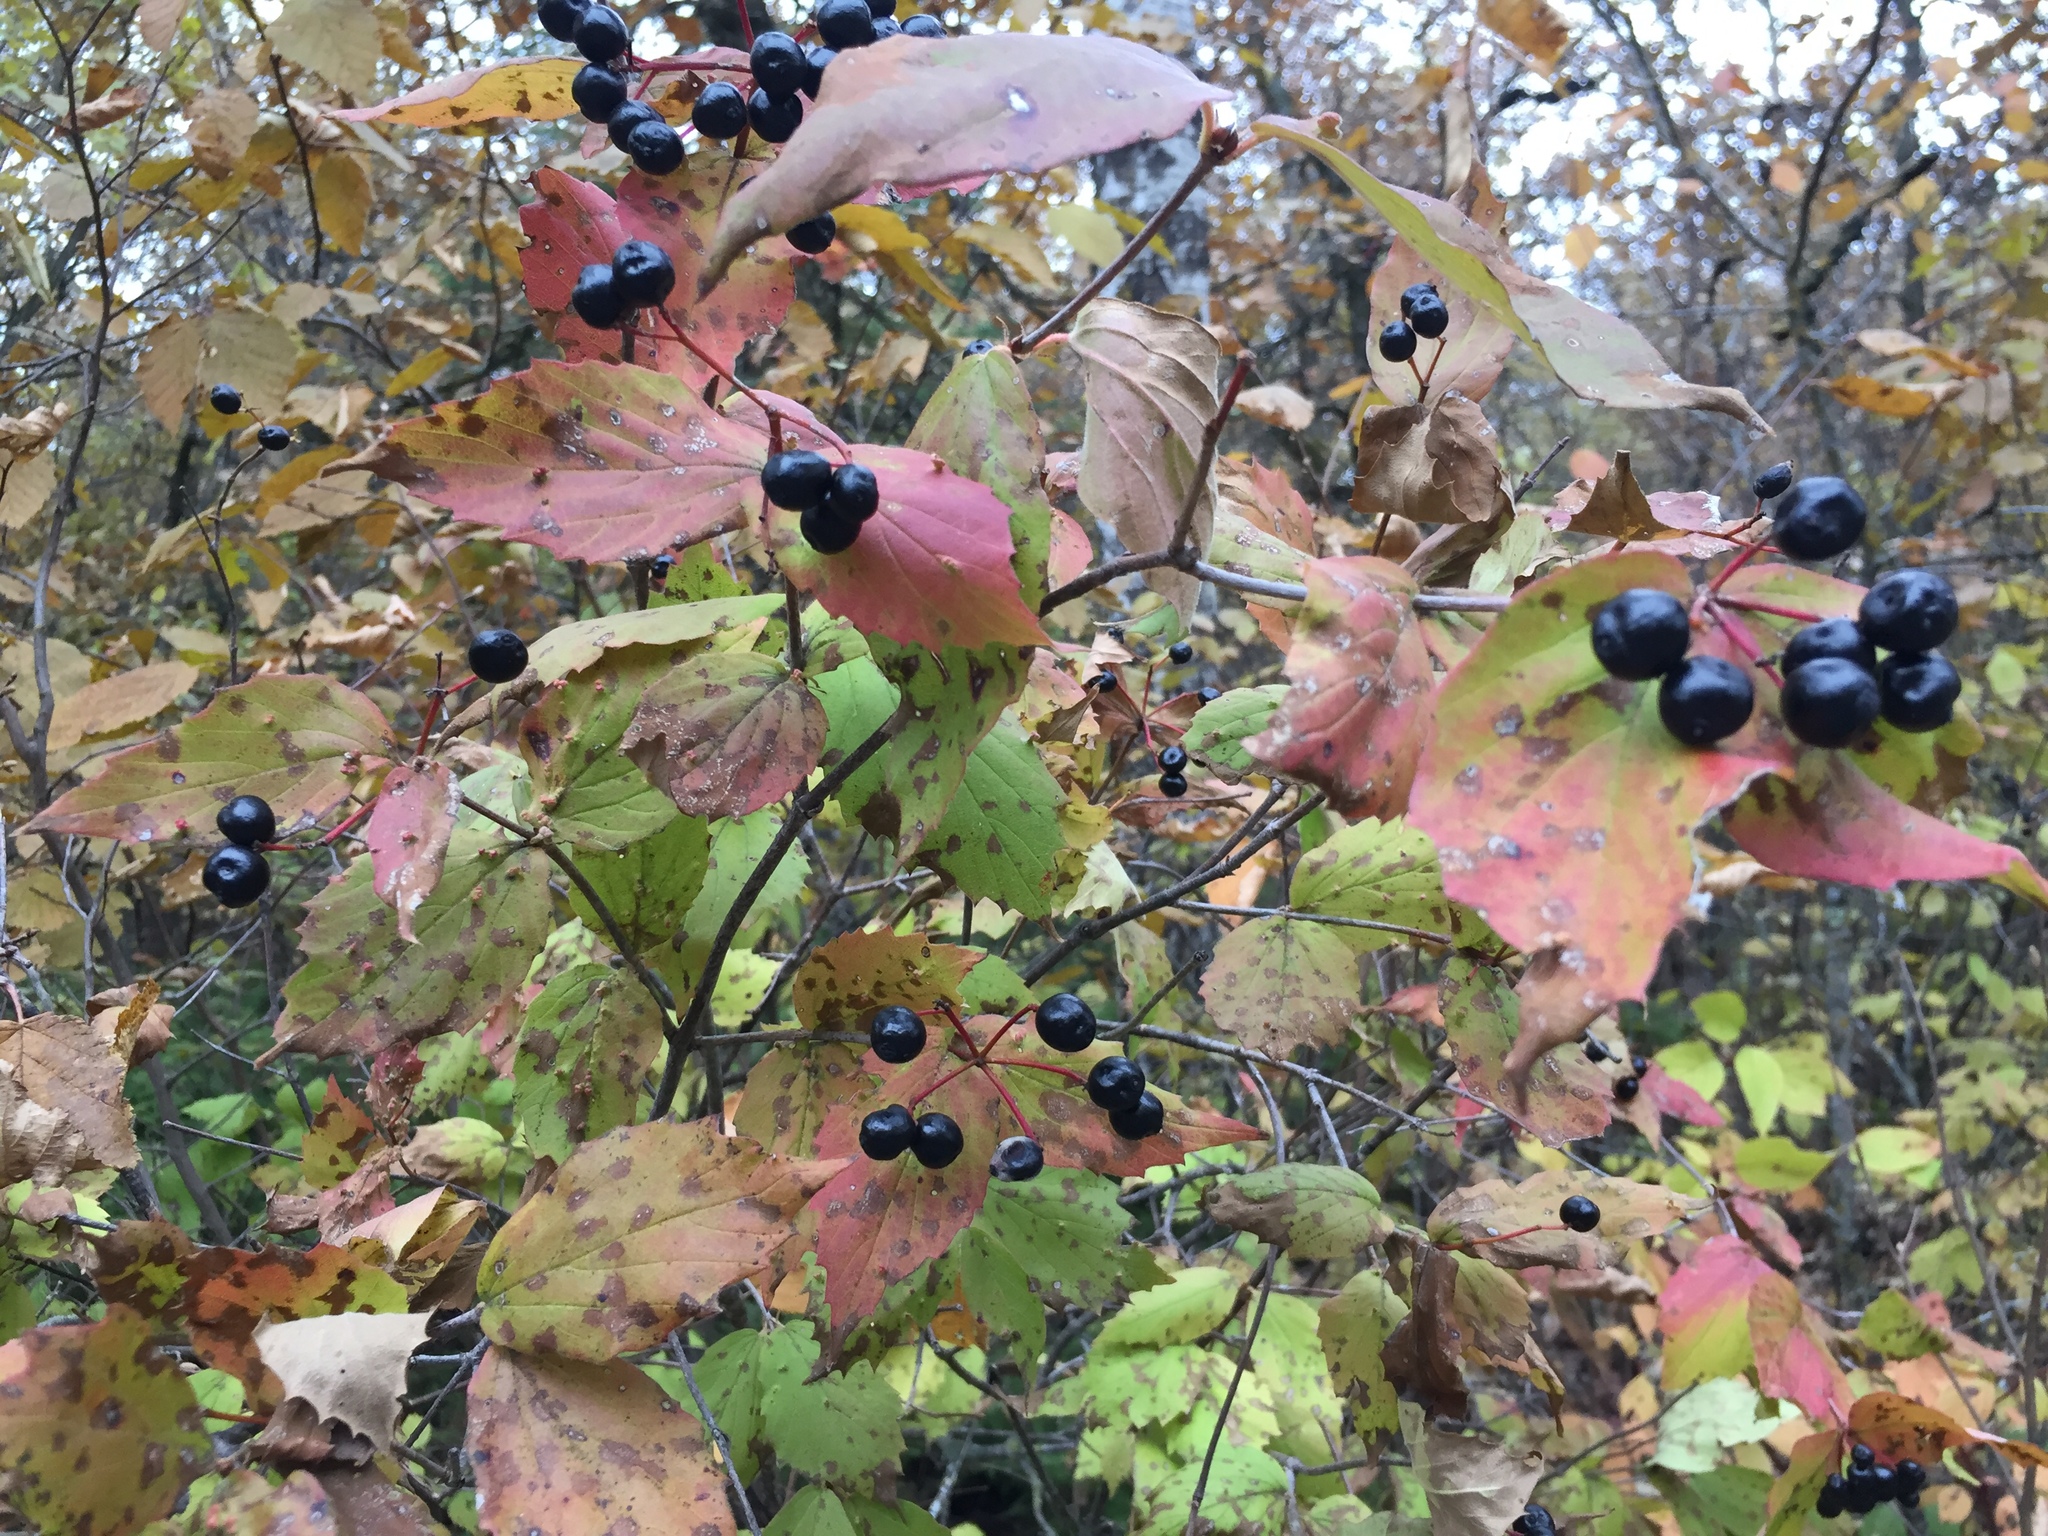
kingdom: Plantae
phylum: Tracheophyta
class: Magnoliopsida
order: Dipsacales
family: Viburnaceae
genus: Viburnum
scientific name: Viburnum rafinesqueanum
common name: Downy arrow-wood
